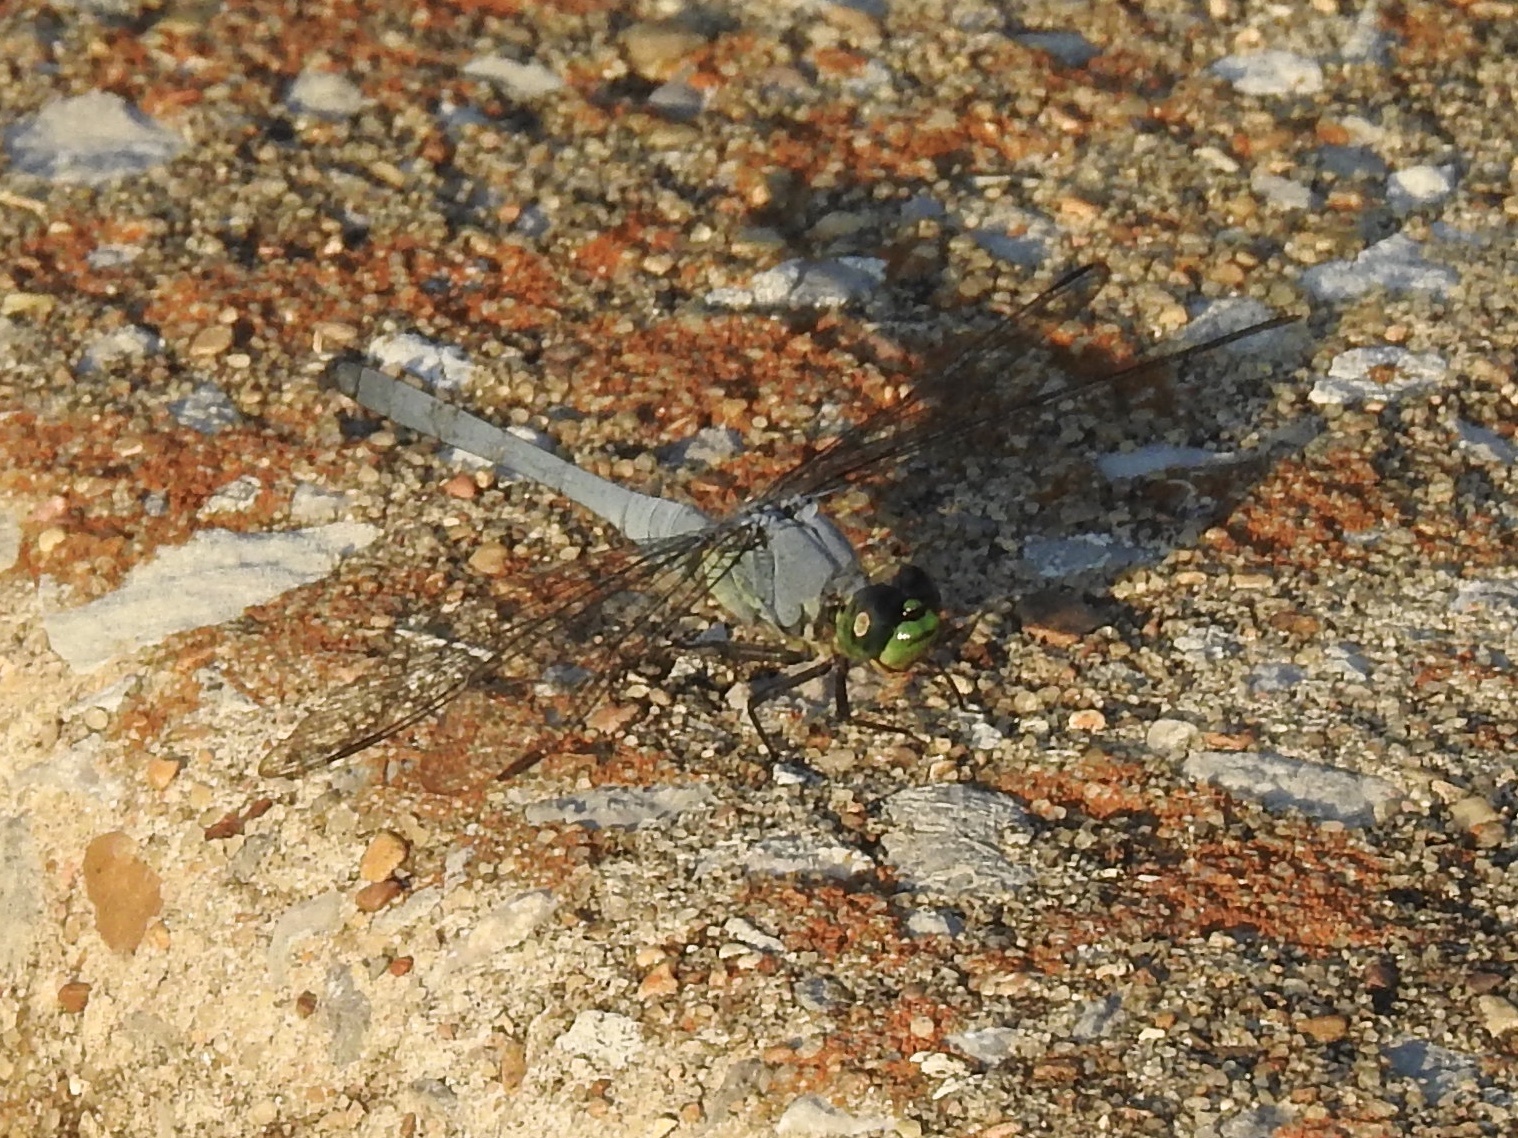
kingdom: Animalia
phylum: Arthropoda
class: Insecta
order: Odonata
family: Libellulidae
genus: Erythemis
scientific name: Erythemis simplicicollis
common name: Eastern pondhawk
